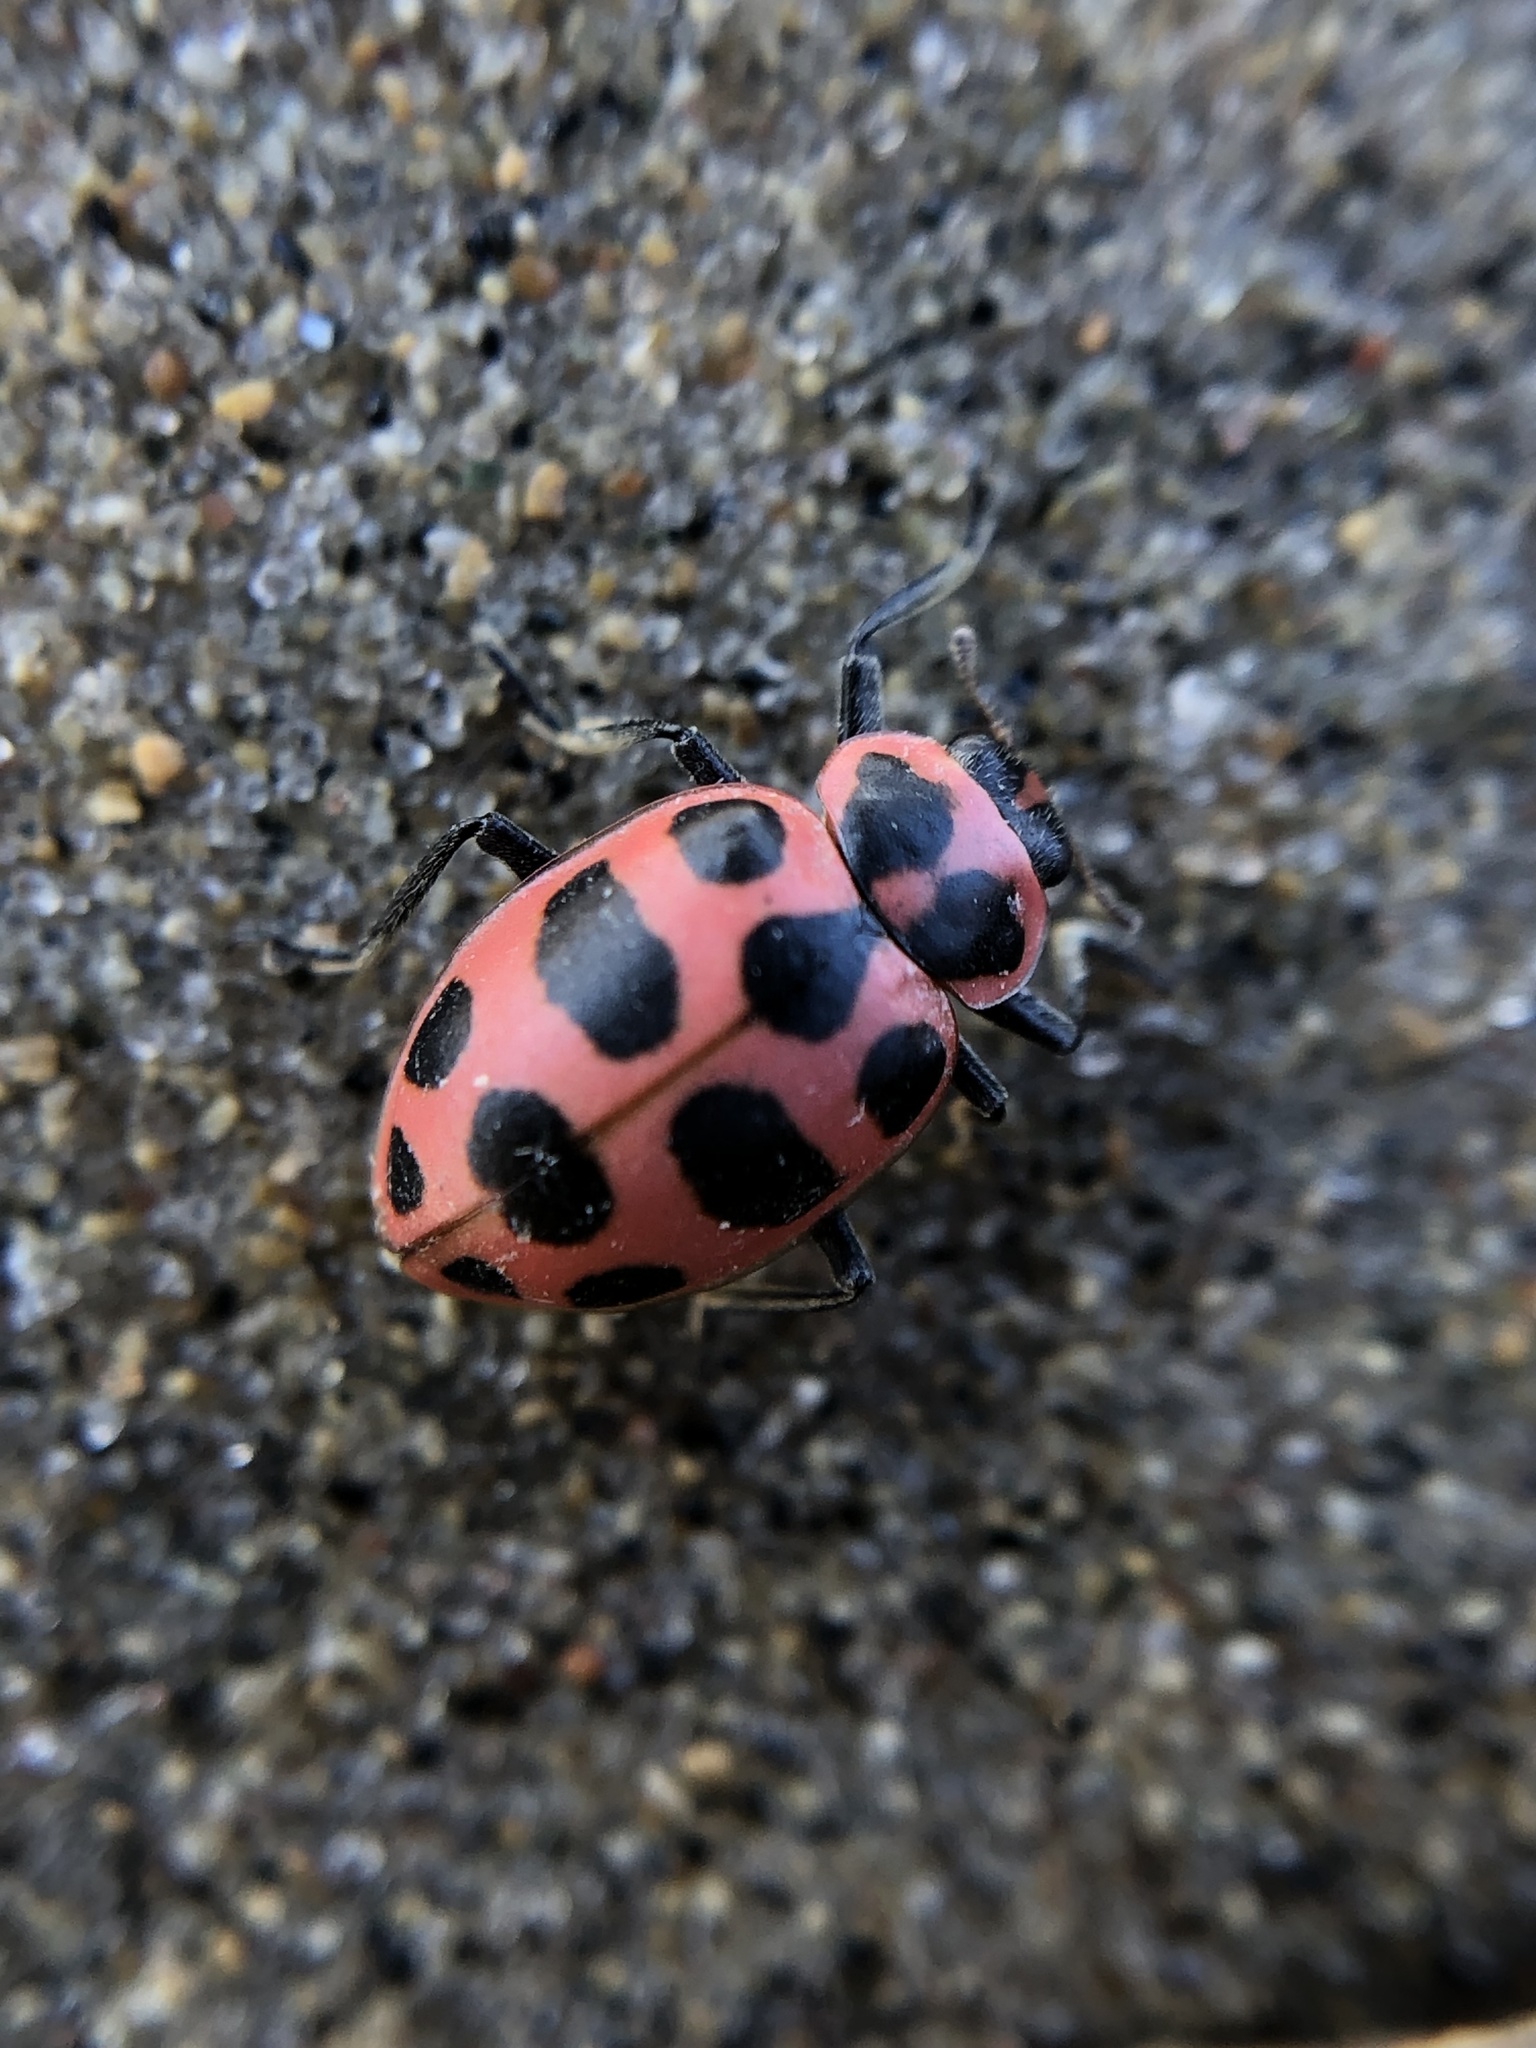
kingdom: Animalia
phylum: Arthropoda
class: Insecta
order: Coleoptera
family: Coccinellidae
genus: Coleomegilla
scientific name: Coleomegilla maculata
